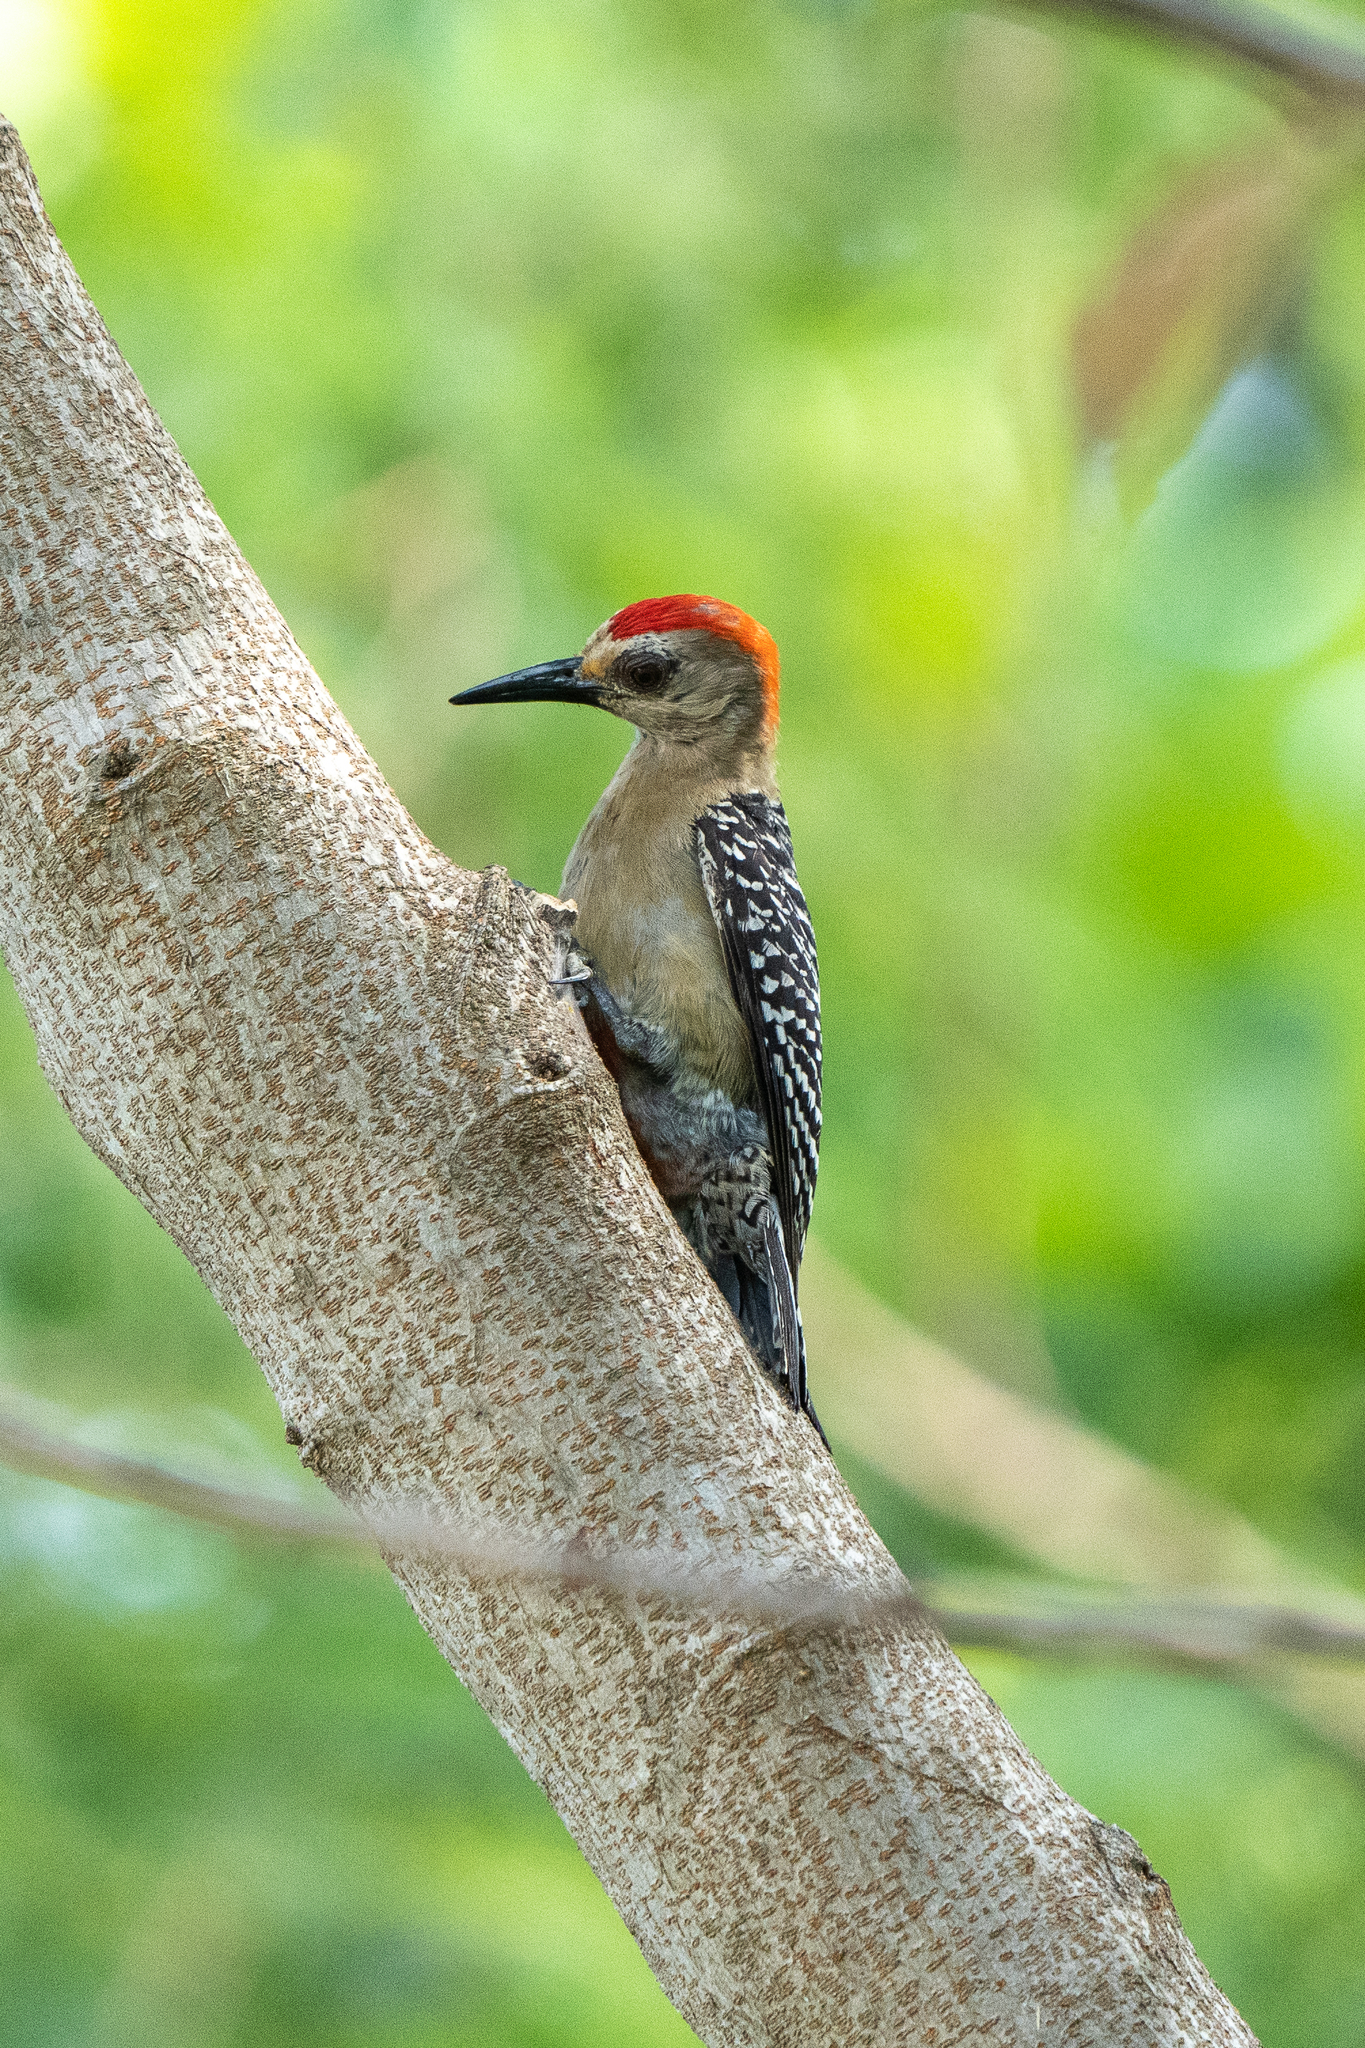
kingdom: Animalia
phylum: Chordata
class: Aves
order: Piciformes
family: Picidae
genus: Melanerpes
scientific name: Melanerpes rubricapillus
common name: Red-crowned woodpecker
